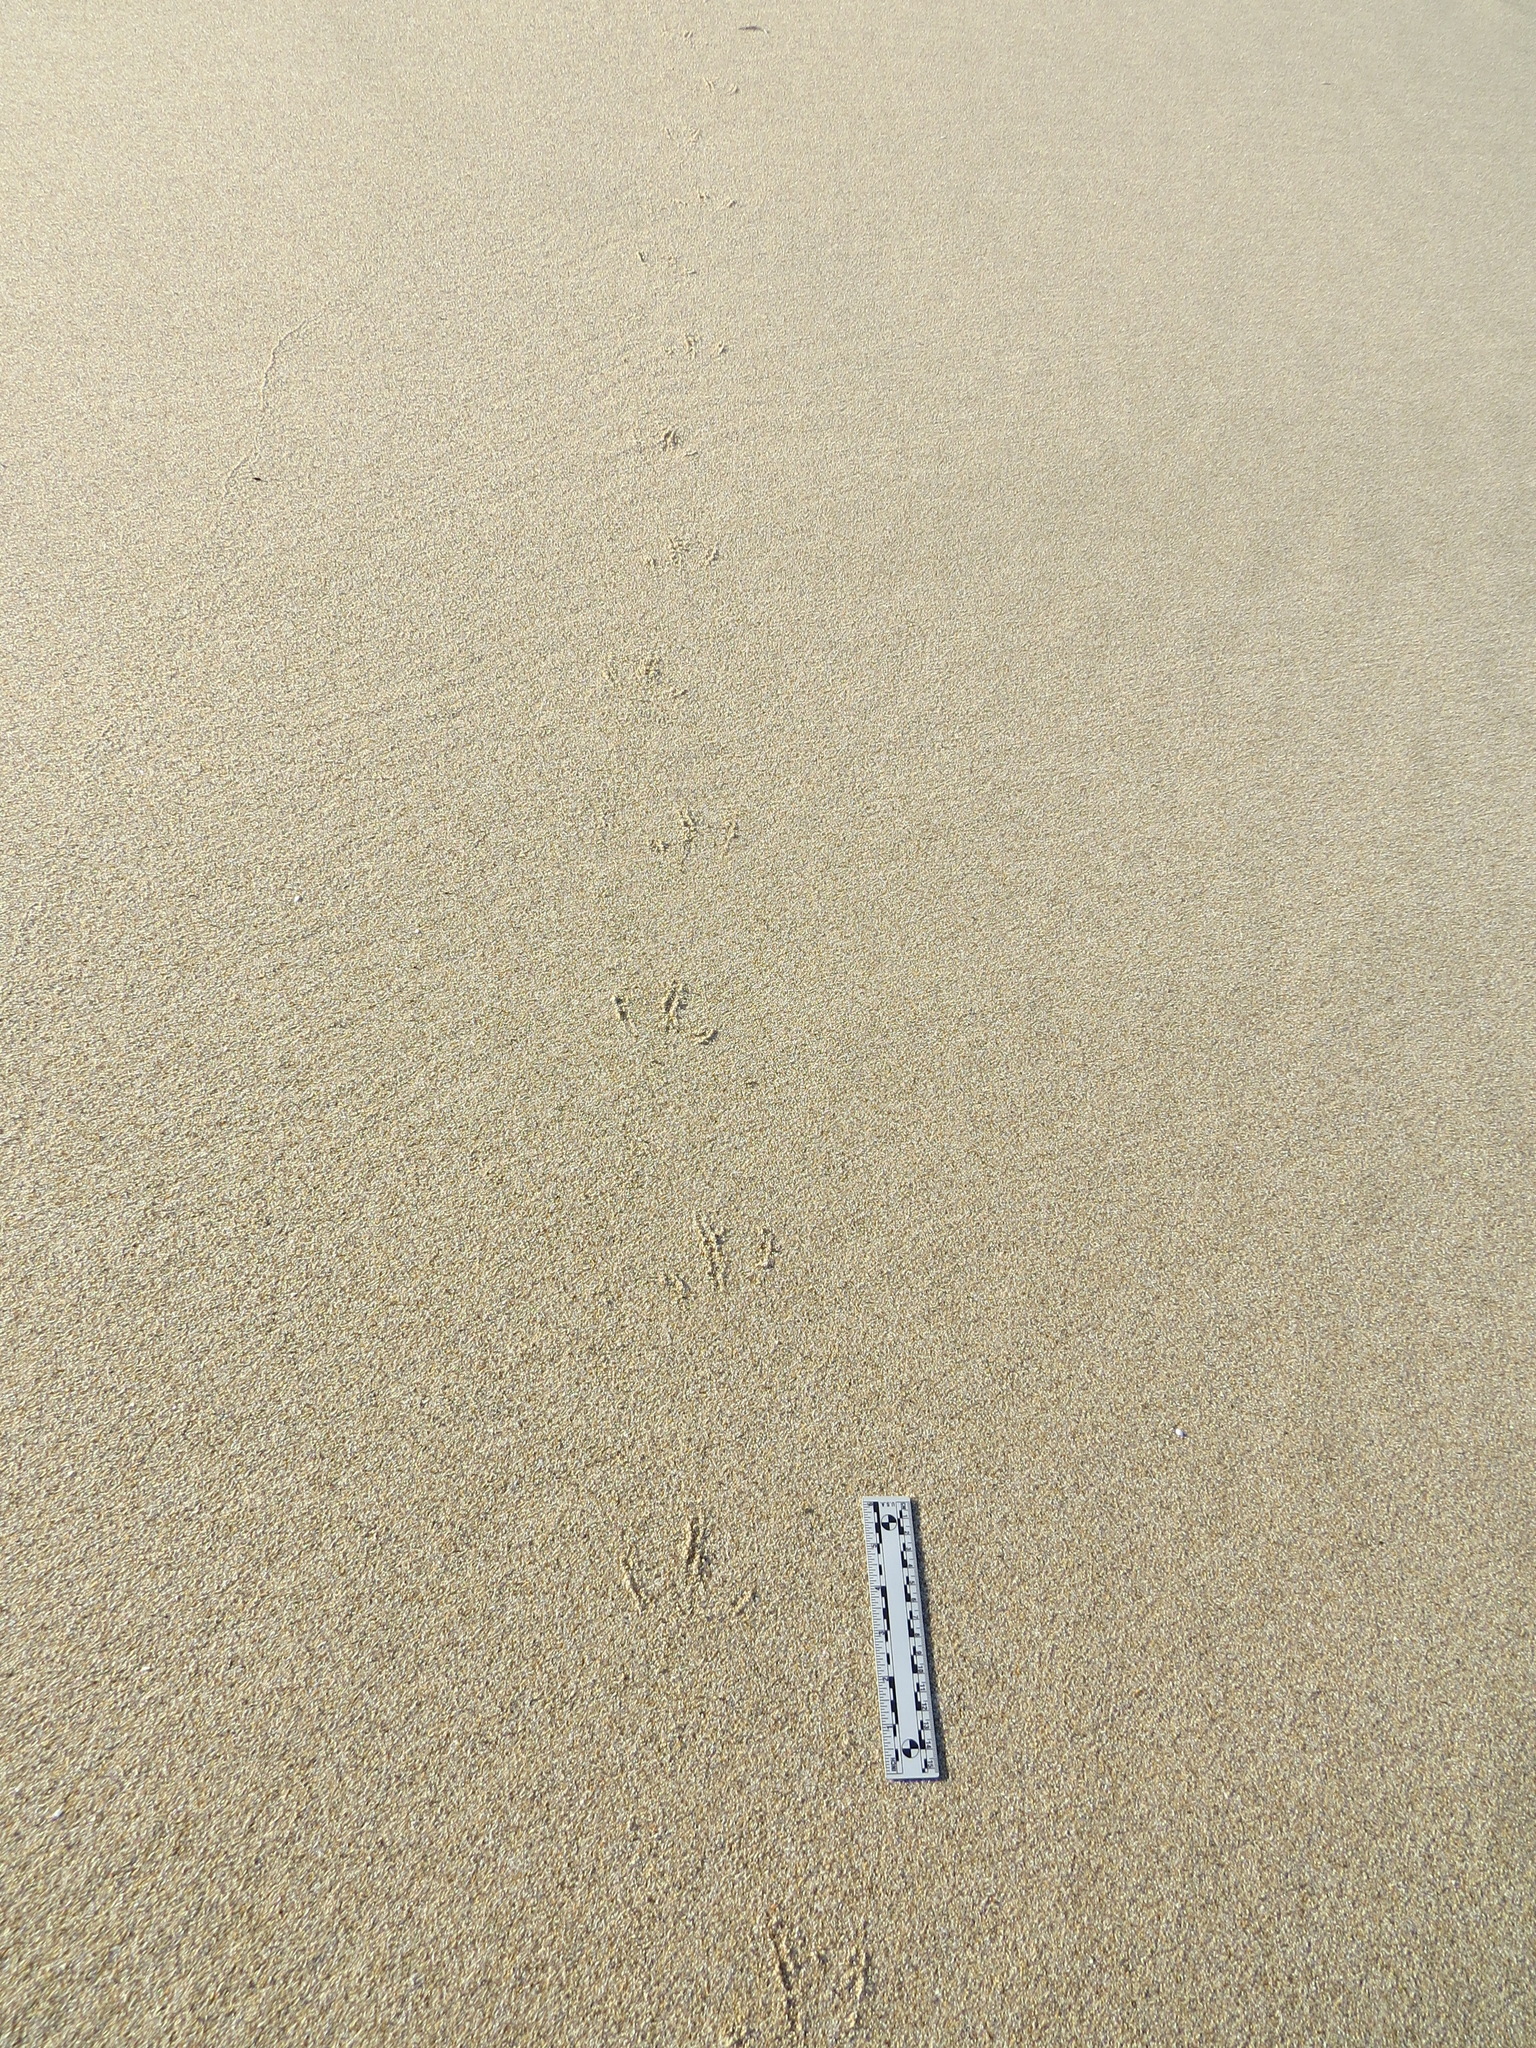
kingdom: Animalia
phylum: Chordata
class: Aves
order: Charadriiformes
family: Laridae
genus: Larus
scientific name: Larus occidentalis
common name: Western gull
